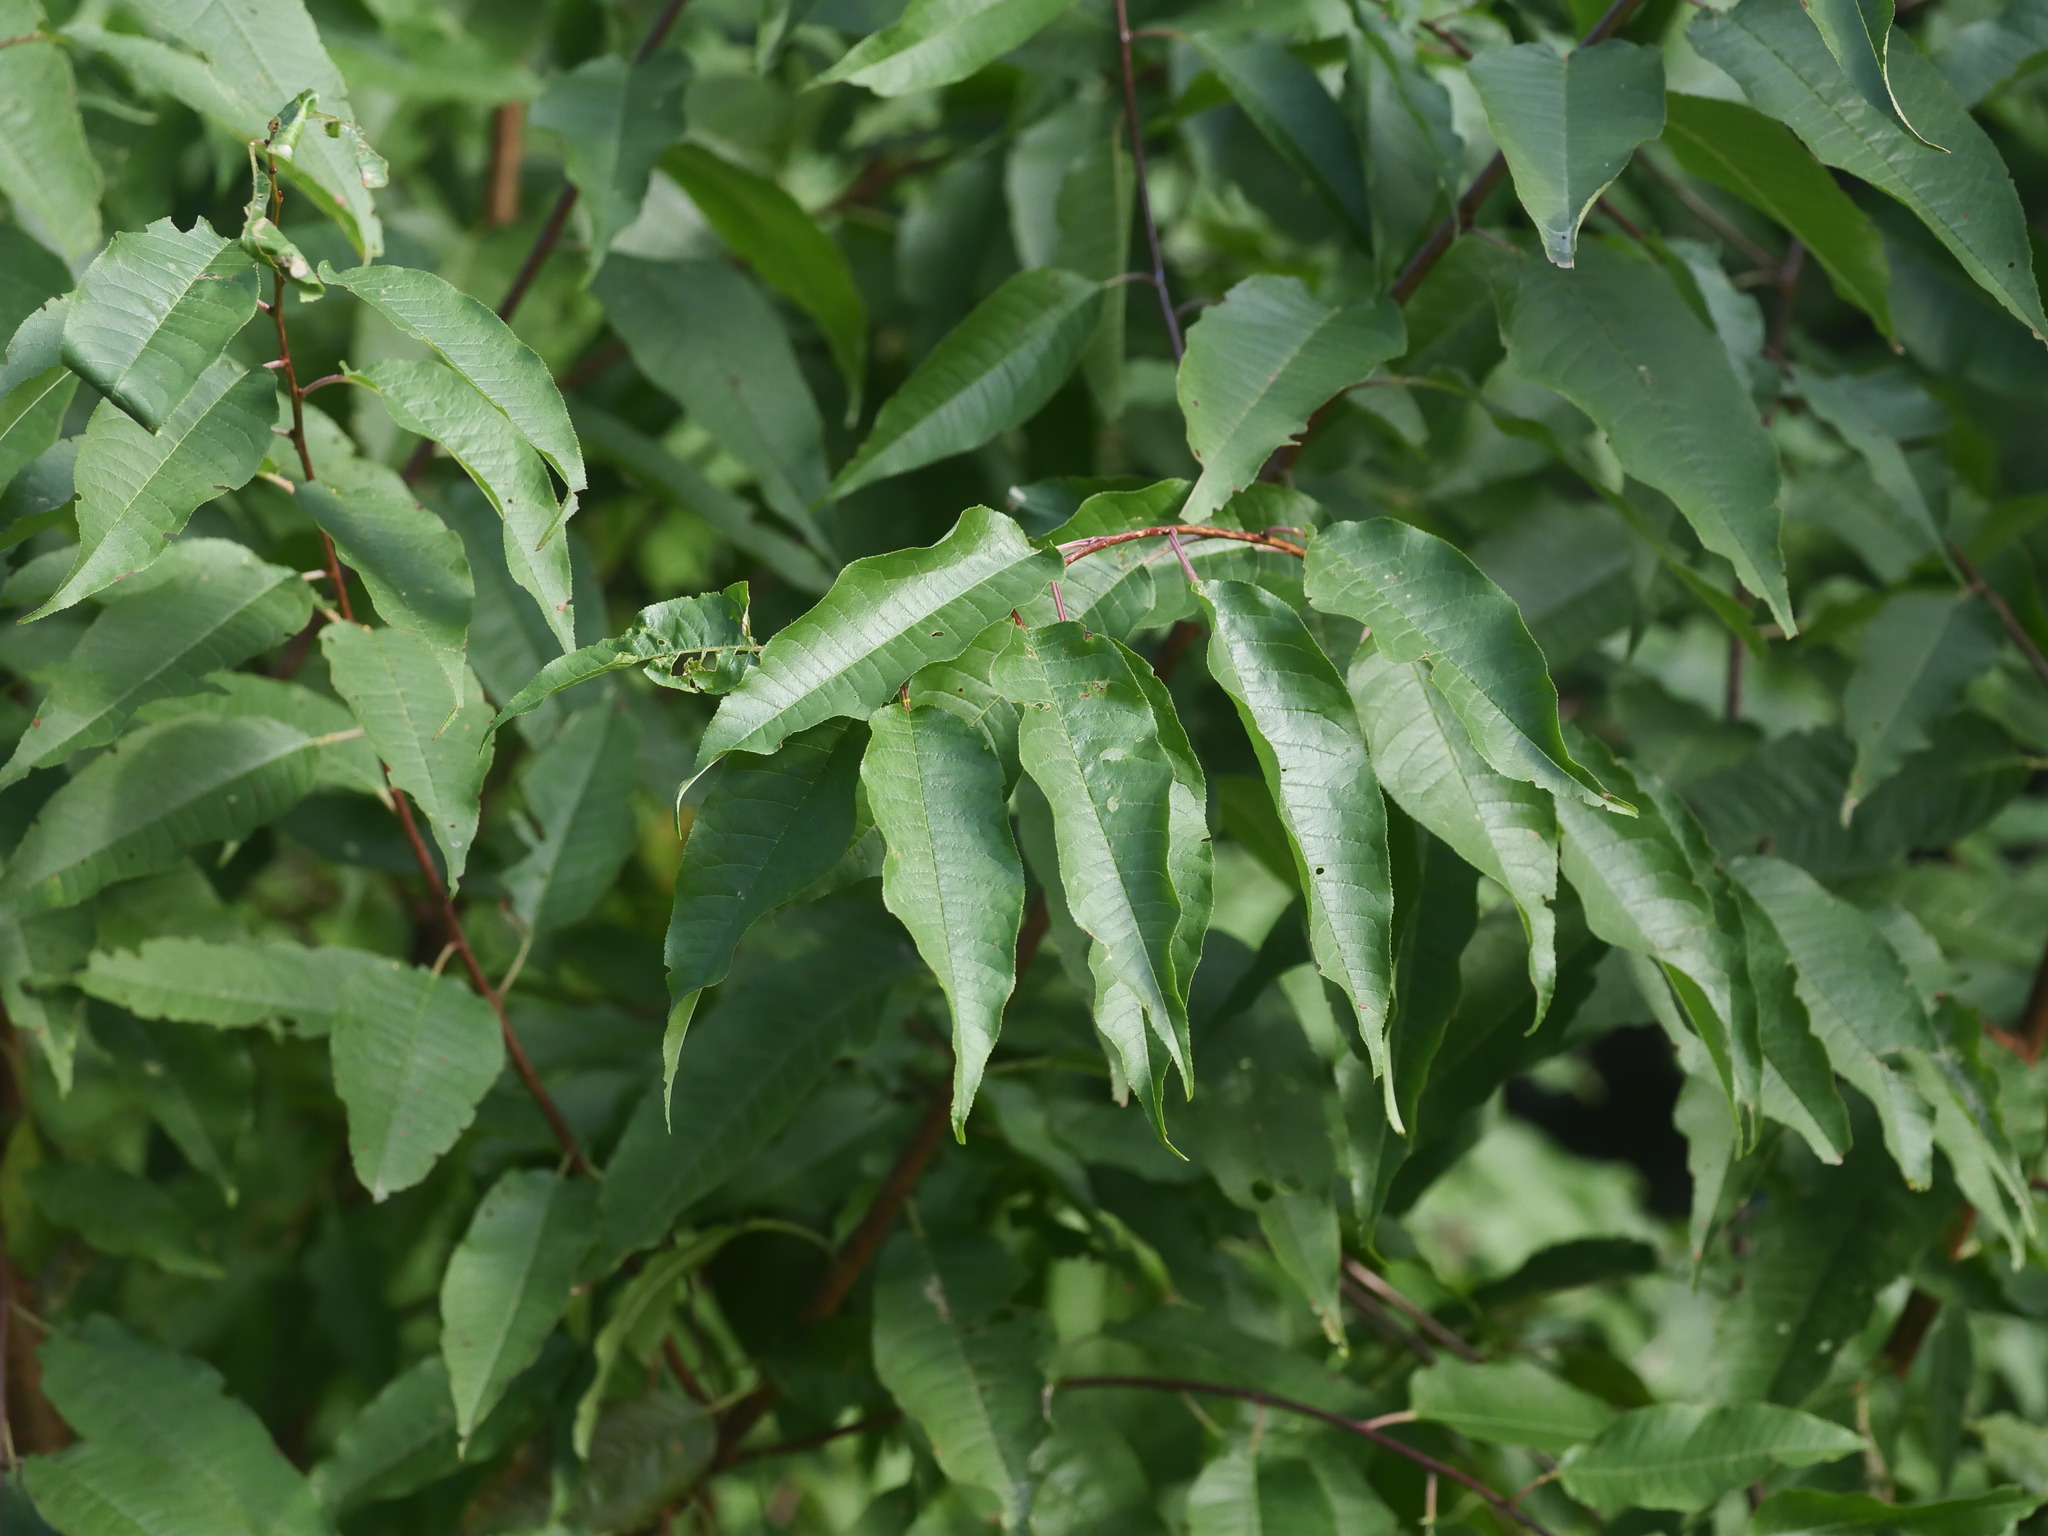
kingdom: Plantae
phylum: Tracheophyta
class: Magnoliopsida
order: Rosales
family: Rosaceae
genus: Prunus
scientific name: Prunus pensylvanica
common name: Pin cherry
